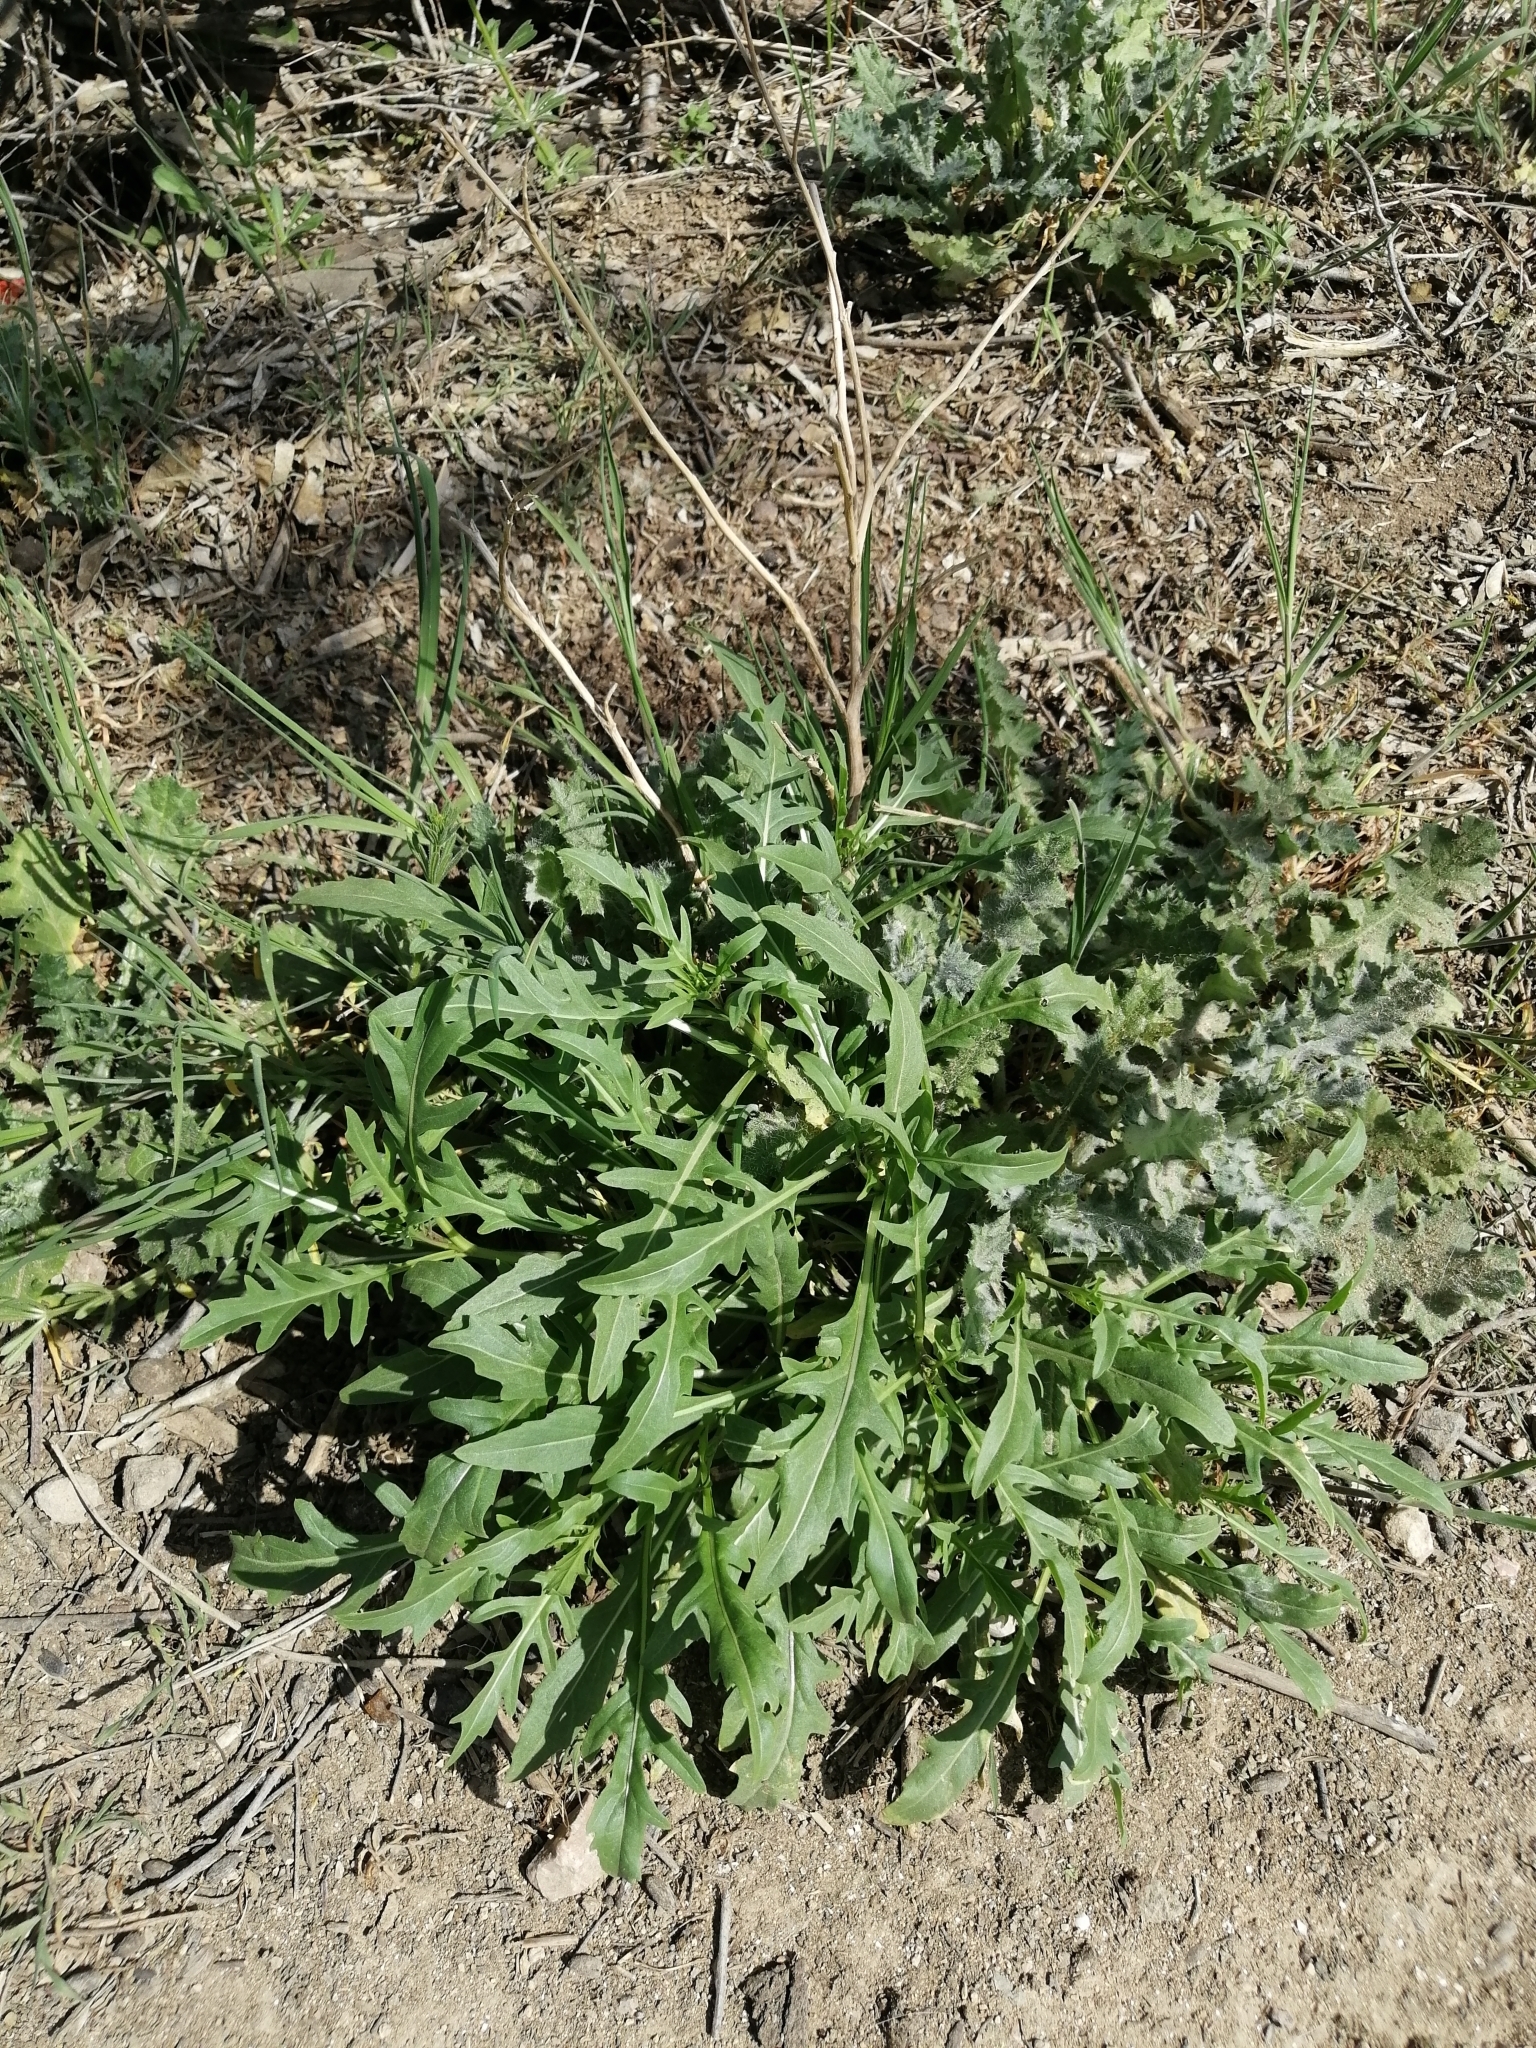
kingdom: Plantae
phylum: Tracheophyta
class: Magnoliopsida
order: Brassicales
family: Brassicaceae
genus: Diplotaxis
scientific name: Diplotaxis tenuifolia
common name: Perennial wall-rocket
